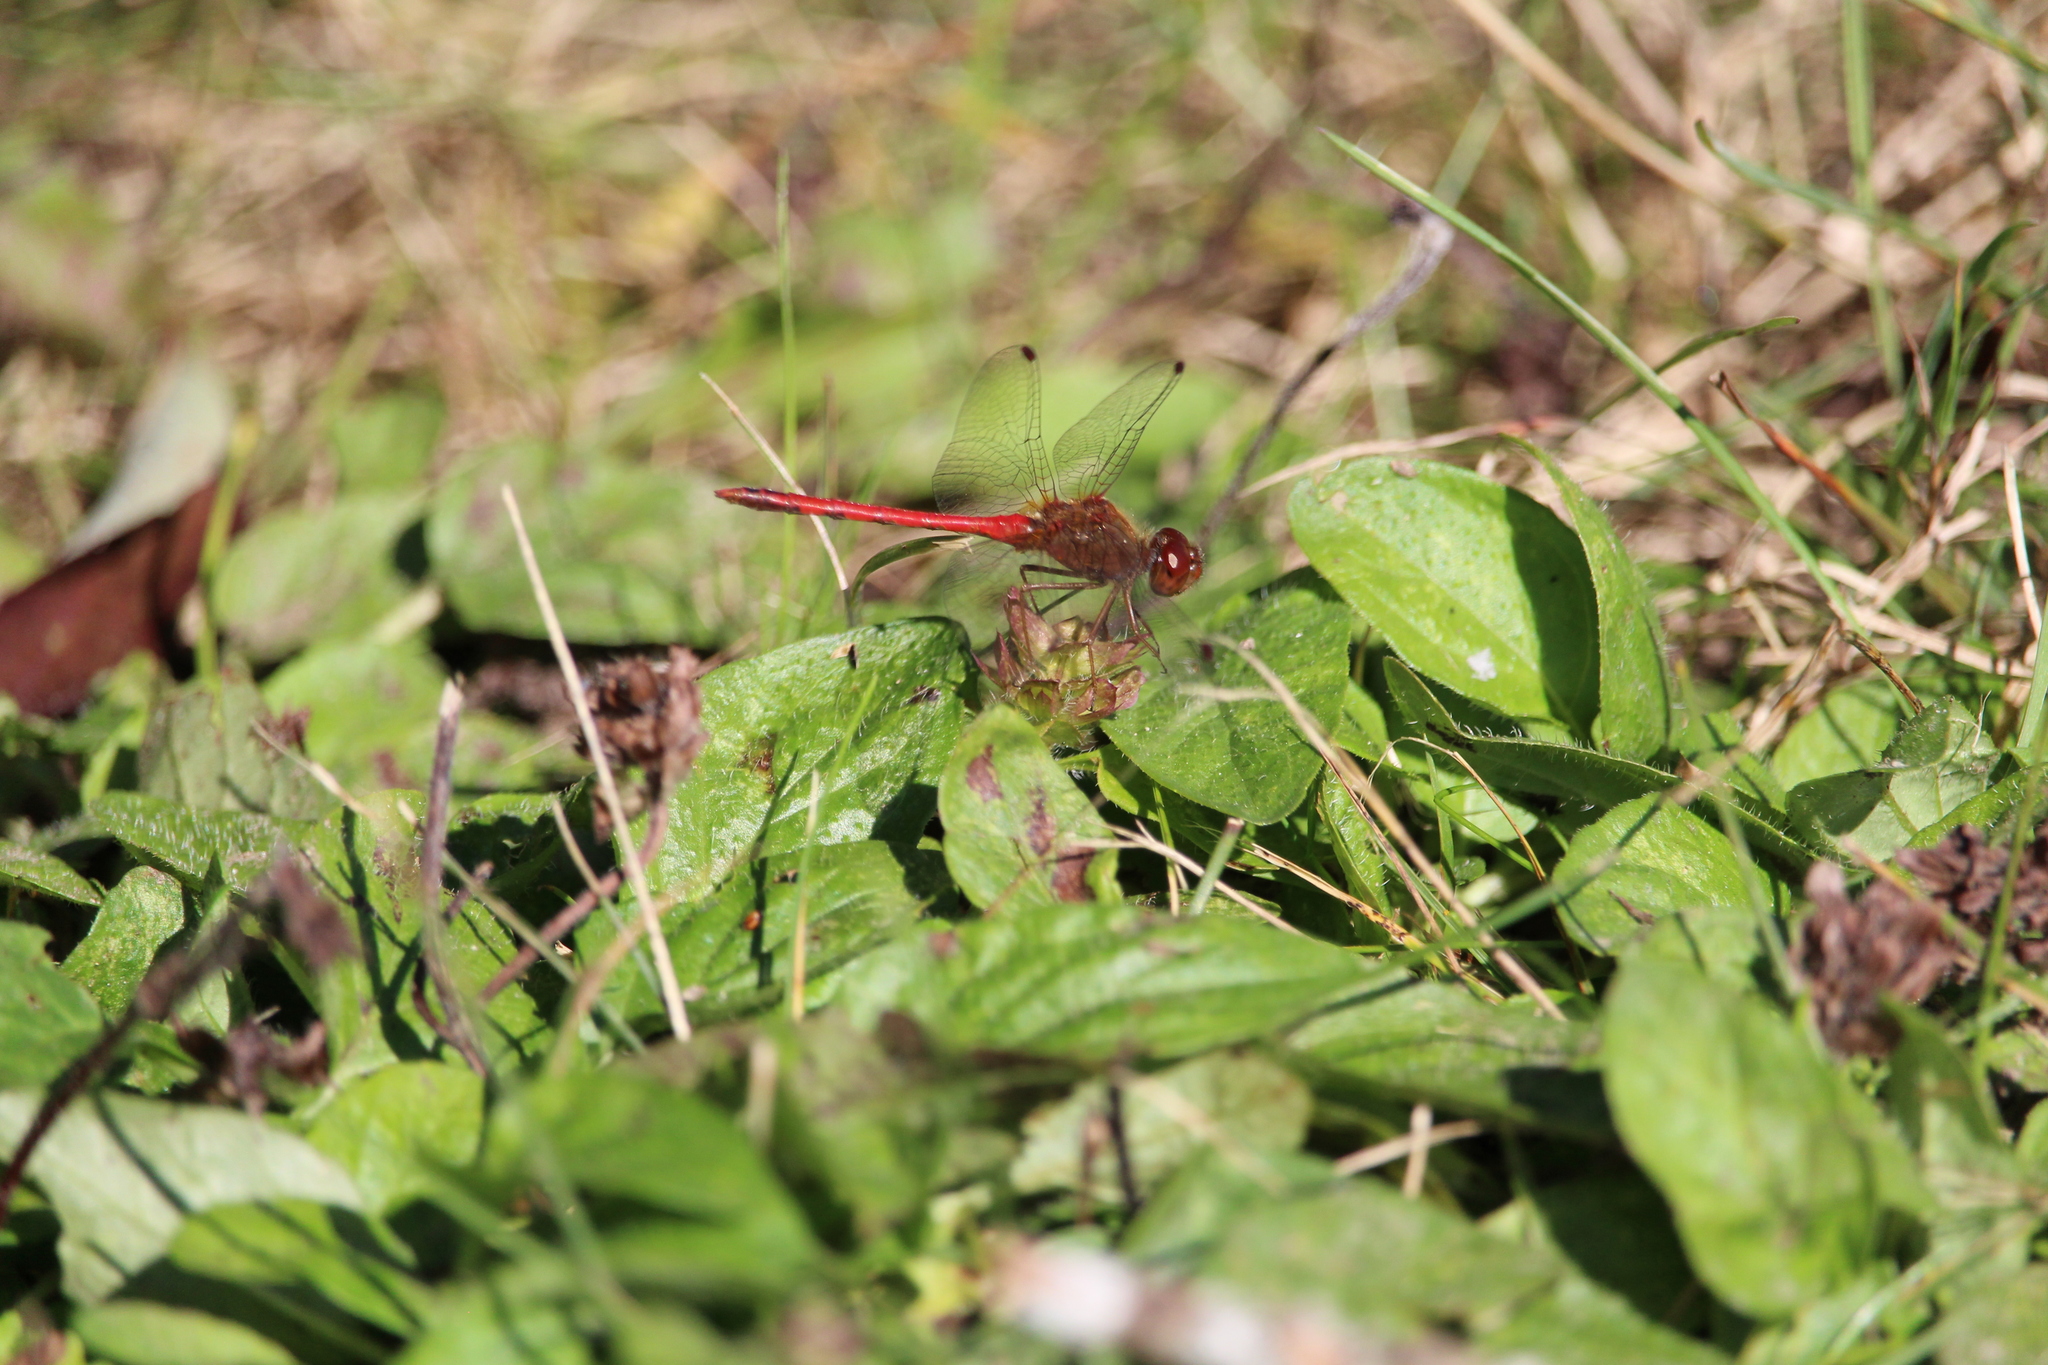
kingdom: Animalia
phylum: Arthropoda
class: Insecta
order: Odonata
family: Libellulidae
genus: Sympetrum
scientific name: Sympetrum vicinum
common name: Autumn meadowhawk
